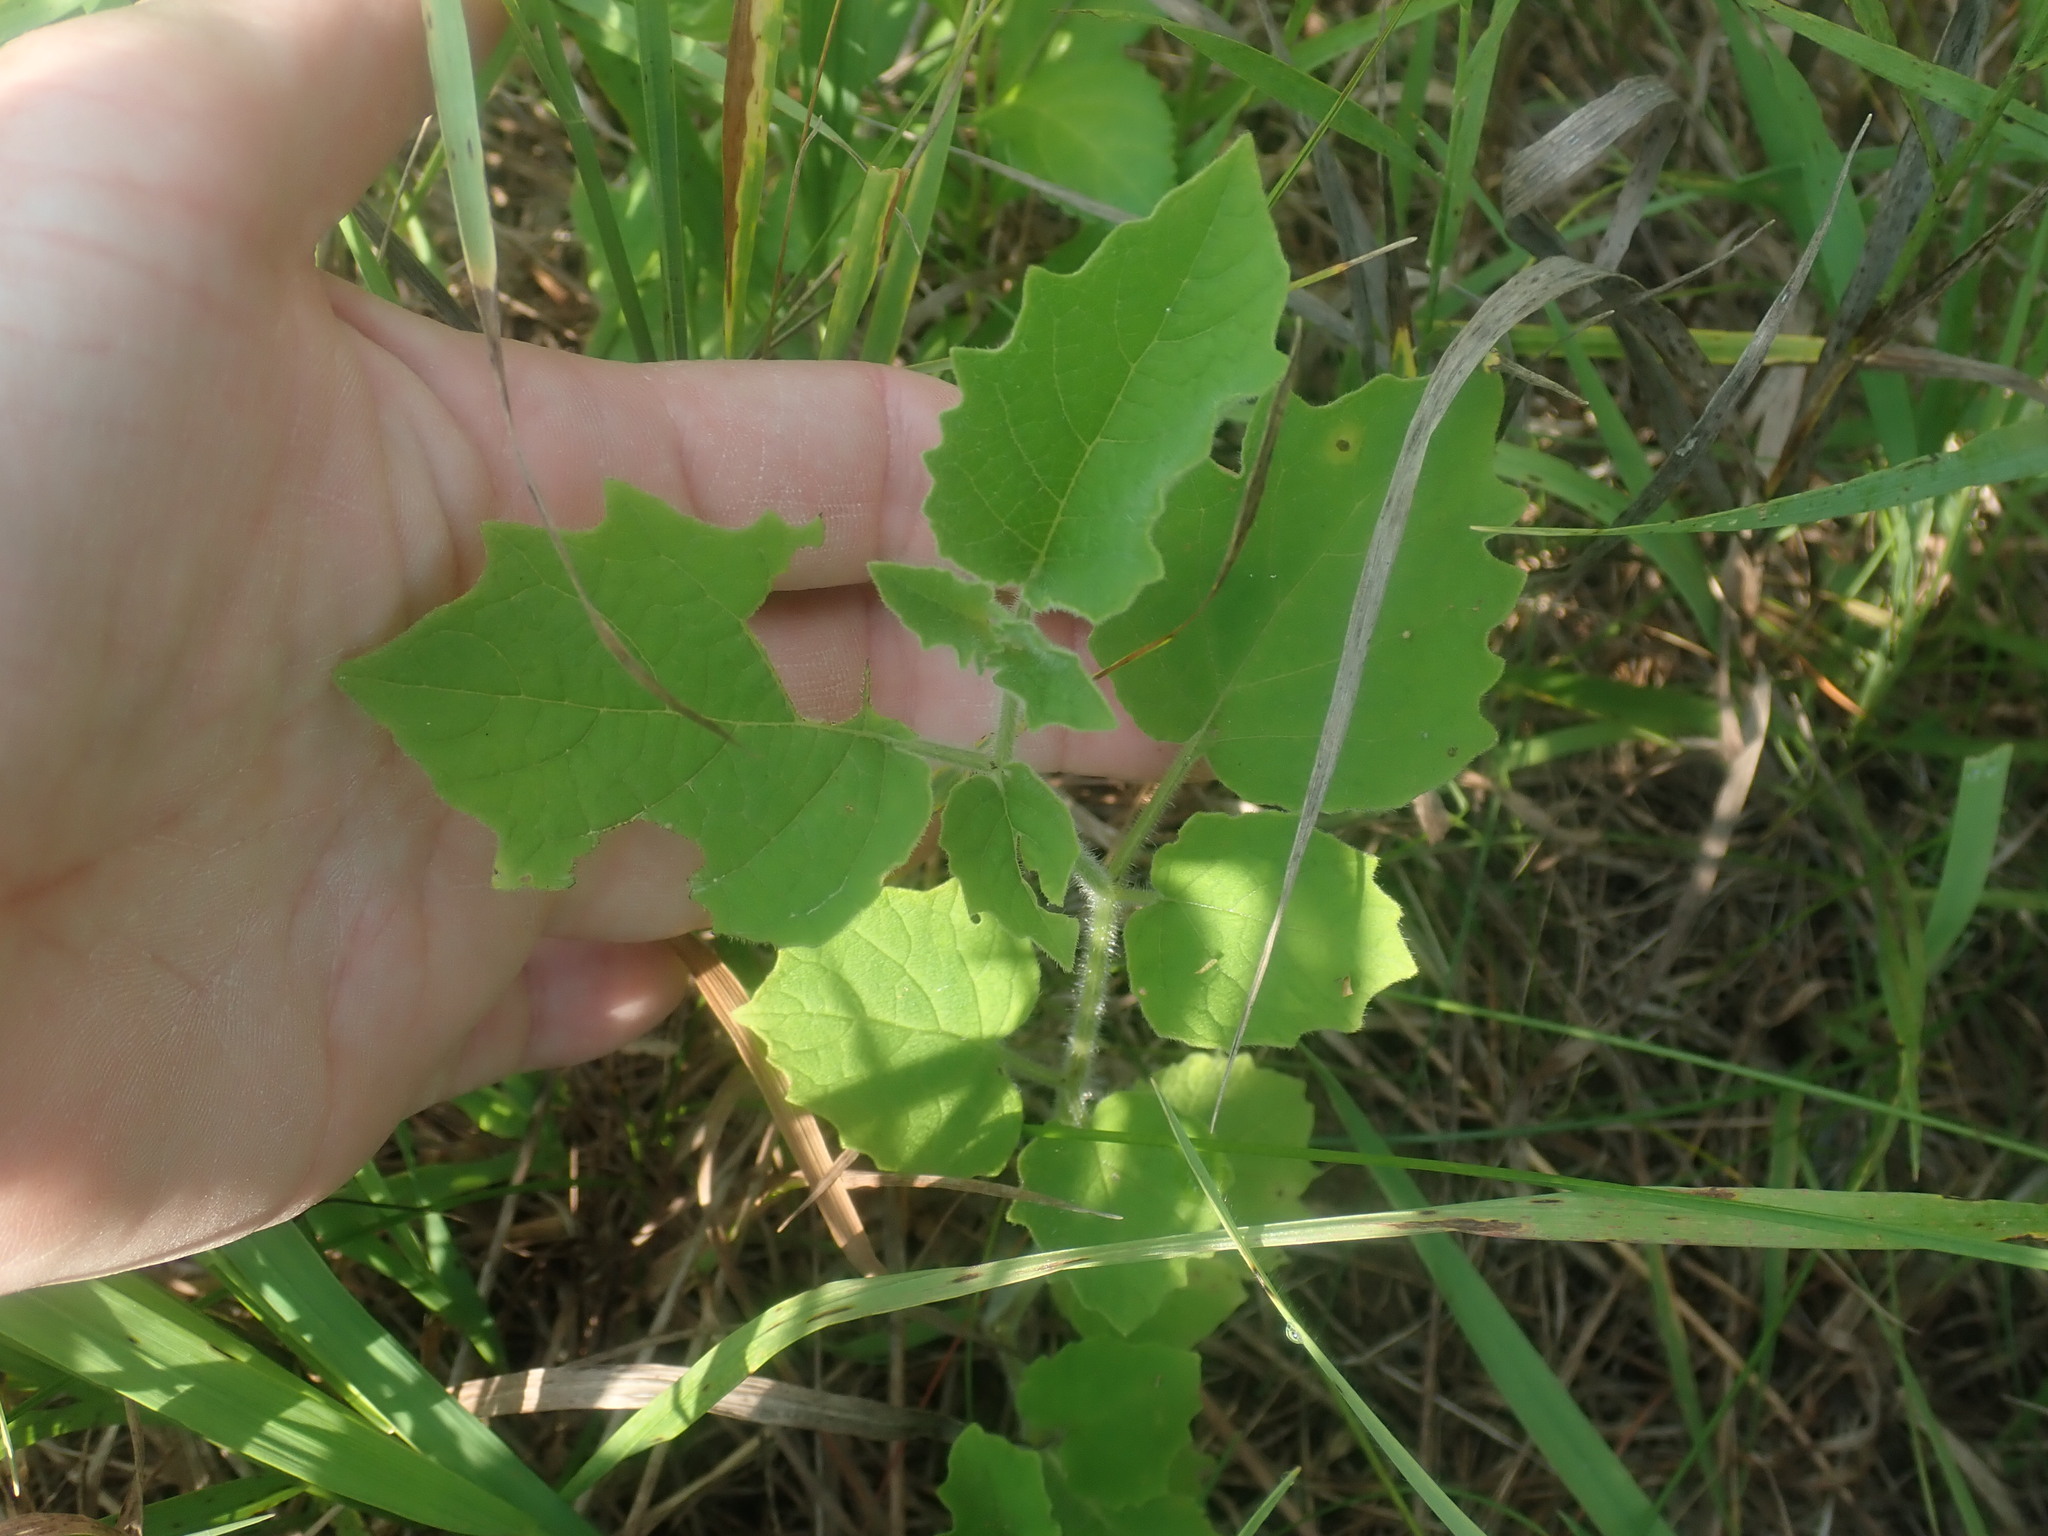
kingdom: Plantae
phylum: Tracheophyta
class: Magnoliopsida
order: Solanales
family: Solanaceae
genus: Physalis
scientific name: Physalis heterophylla
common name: Clammy ground-cherry
